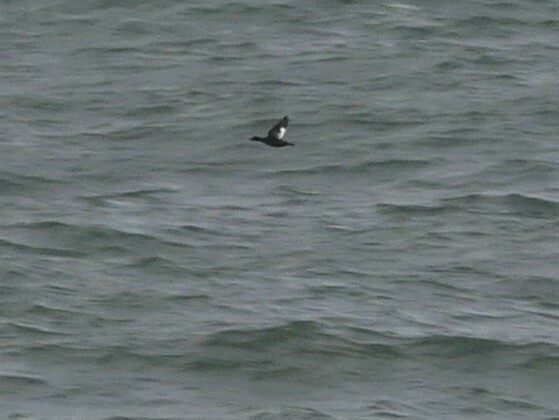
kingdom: Animalia
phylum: Chordata
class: Aves
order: Anseriformes
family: Anatidae
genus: Melanitta
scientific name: Melanitta deglandi
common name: White-winged scoter
